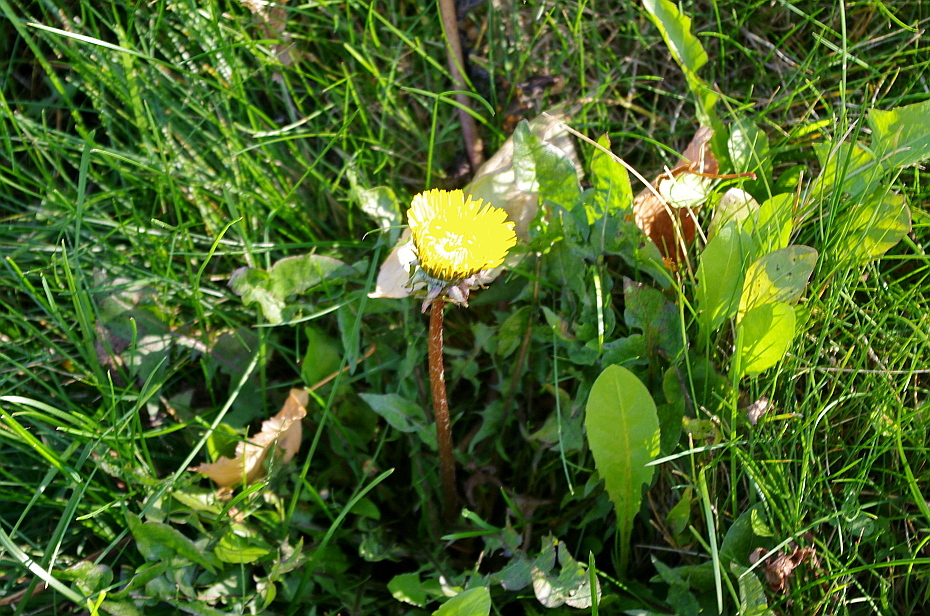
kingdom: Plantae
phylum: Tracheophyta
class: Magnoliopsida
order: Asterales
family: Asteraceae
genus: Taraxacum
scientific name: Taraxacum officinale
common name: Common dandelion
